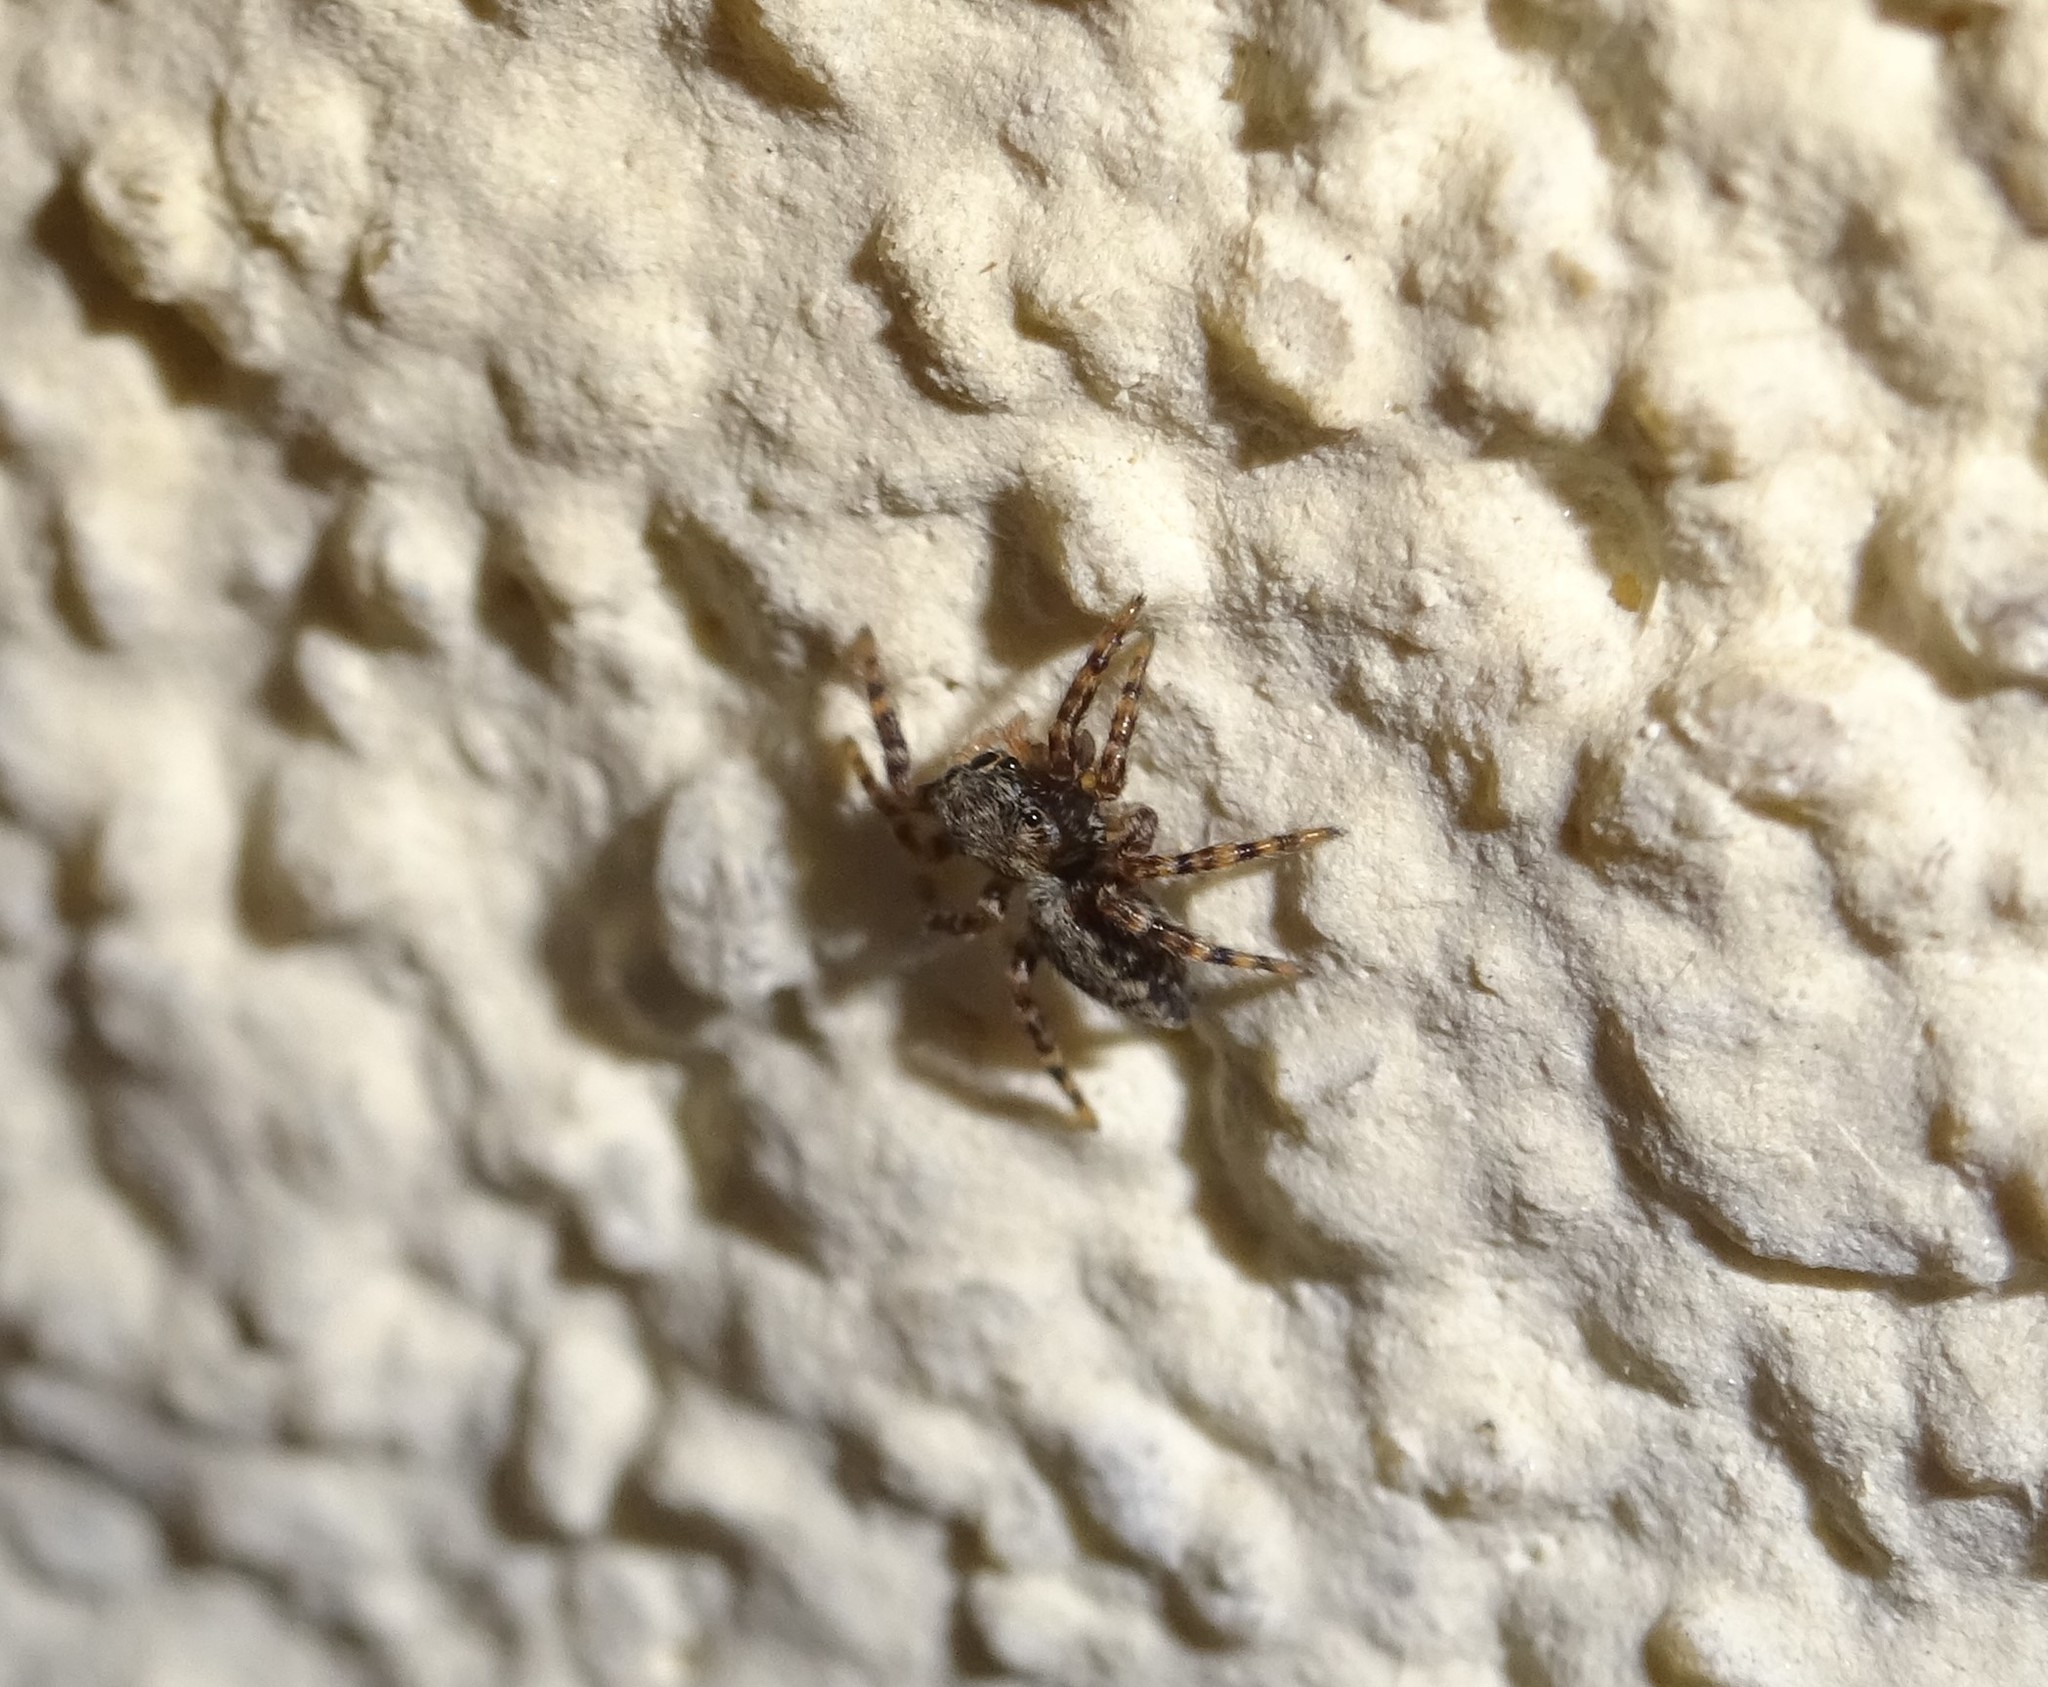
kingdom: Animalia
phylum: Arthropoda
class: Arachnida
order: Araneae
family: Salticidae
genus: Pseudeuophrys
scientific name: Pseudeuophrys lanigera
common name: Jumping spider
